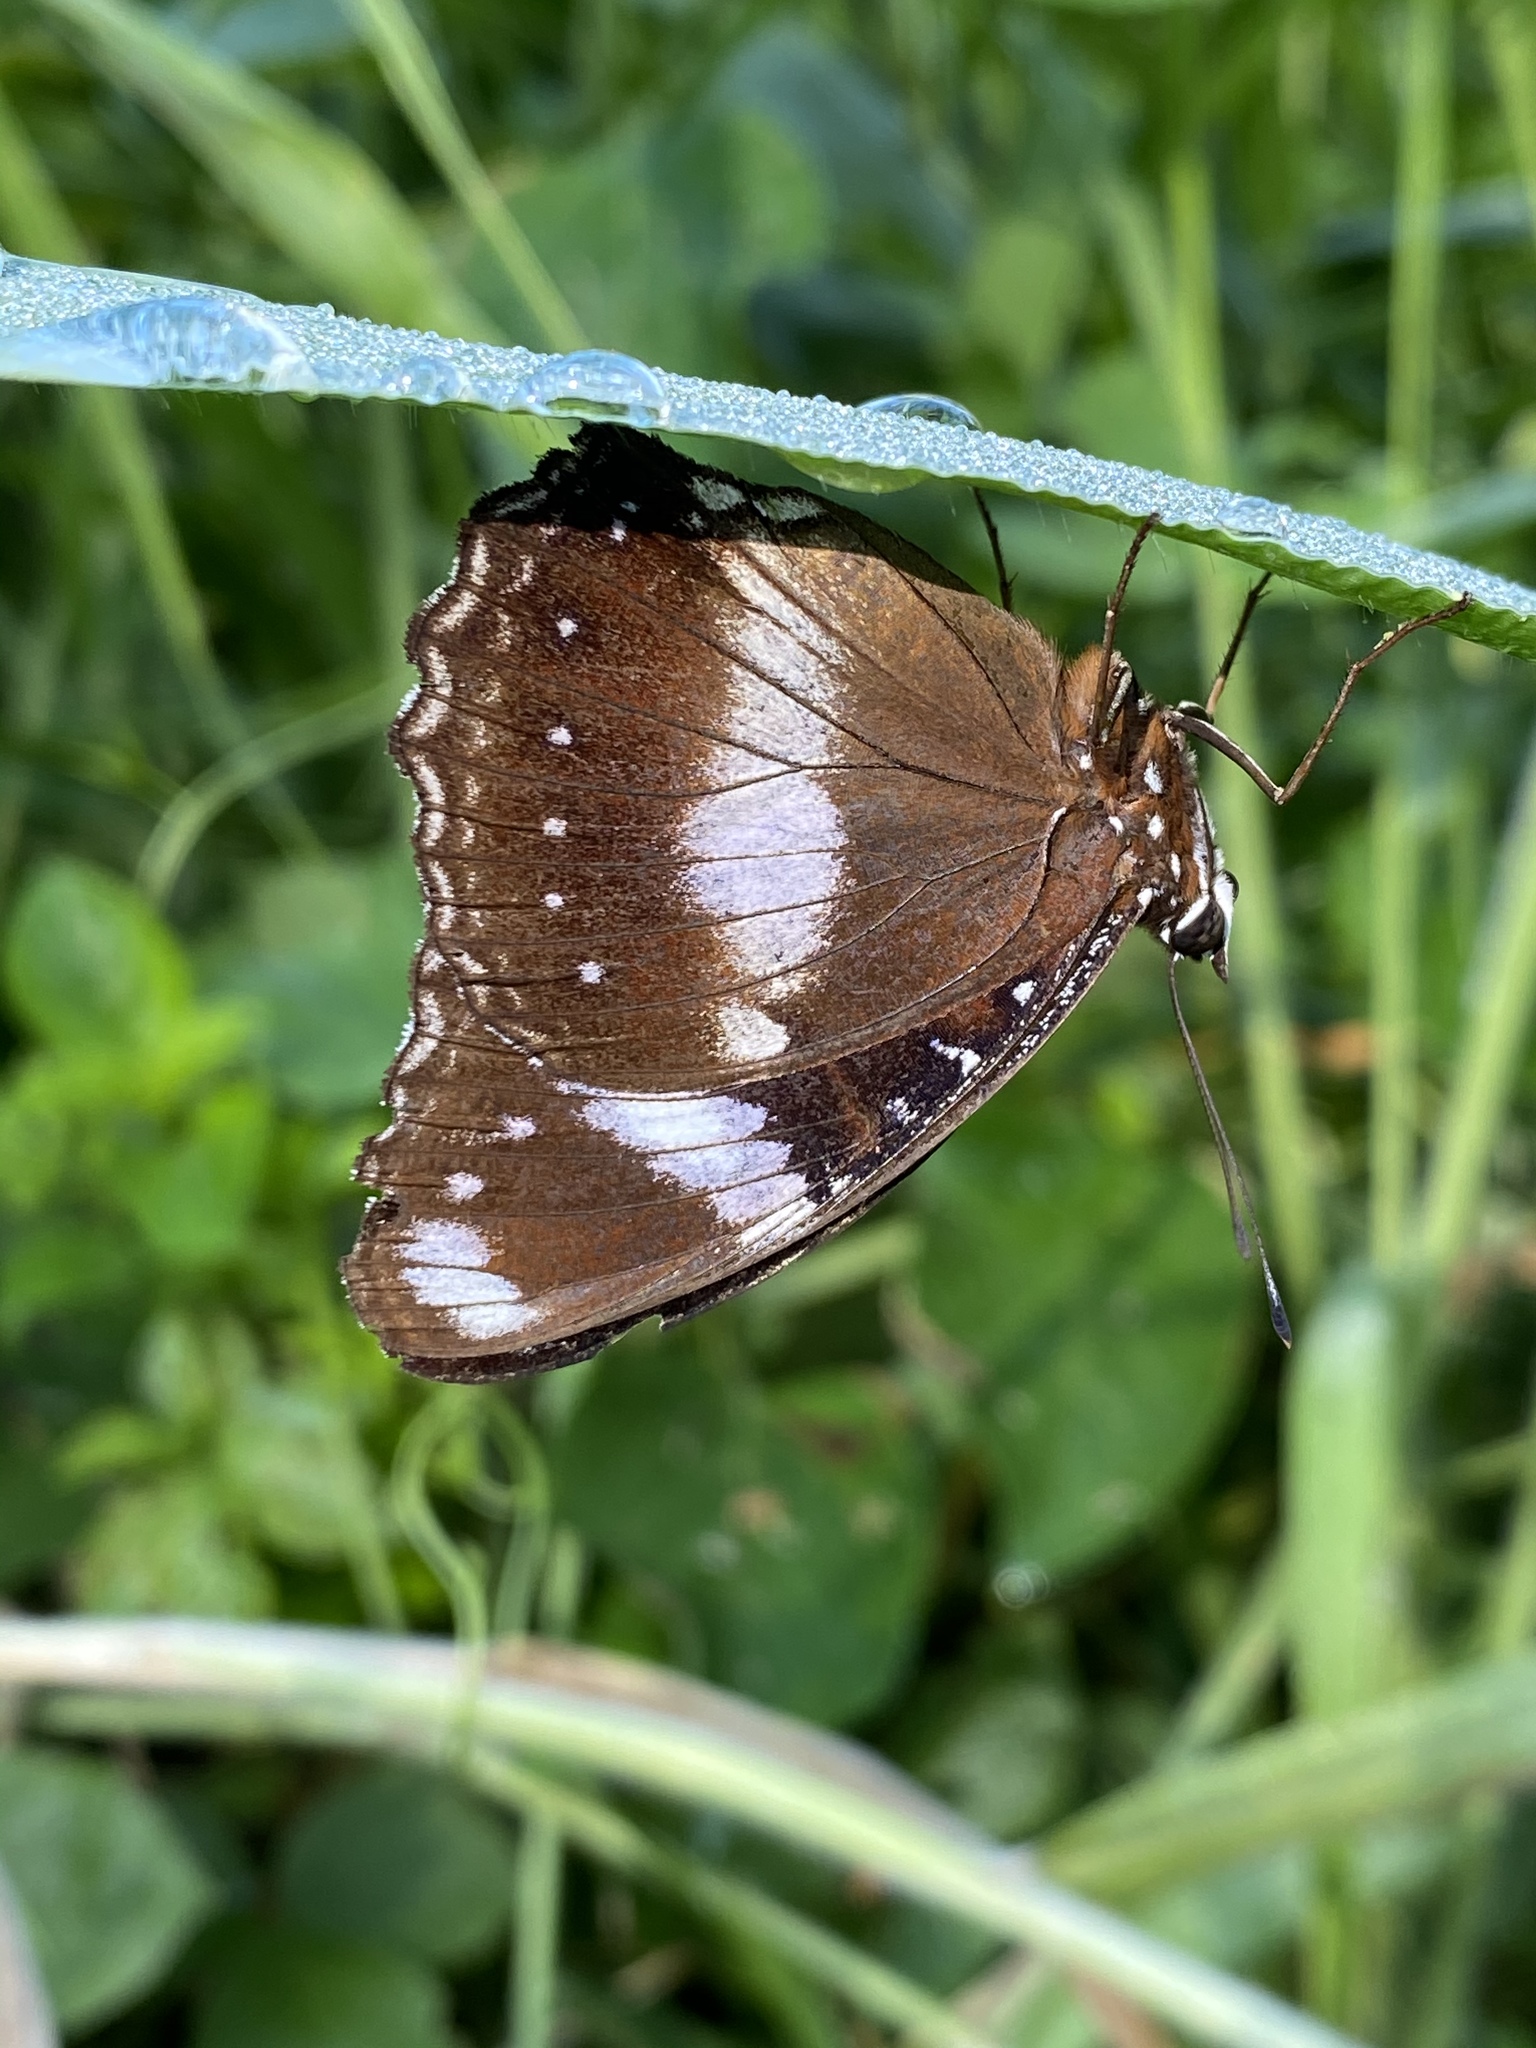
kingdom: Animalia
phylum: Arthropoda
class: Insecta
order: Lepidoptera
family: Nymphalidae
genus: Hypolimnas
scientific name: Hypolimnas bolina
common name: Great eggfly
